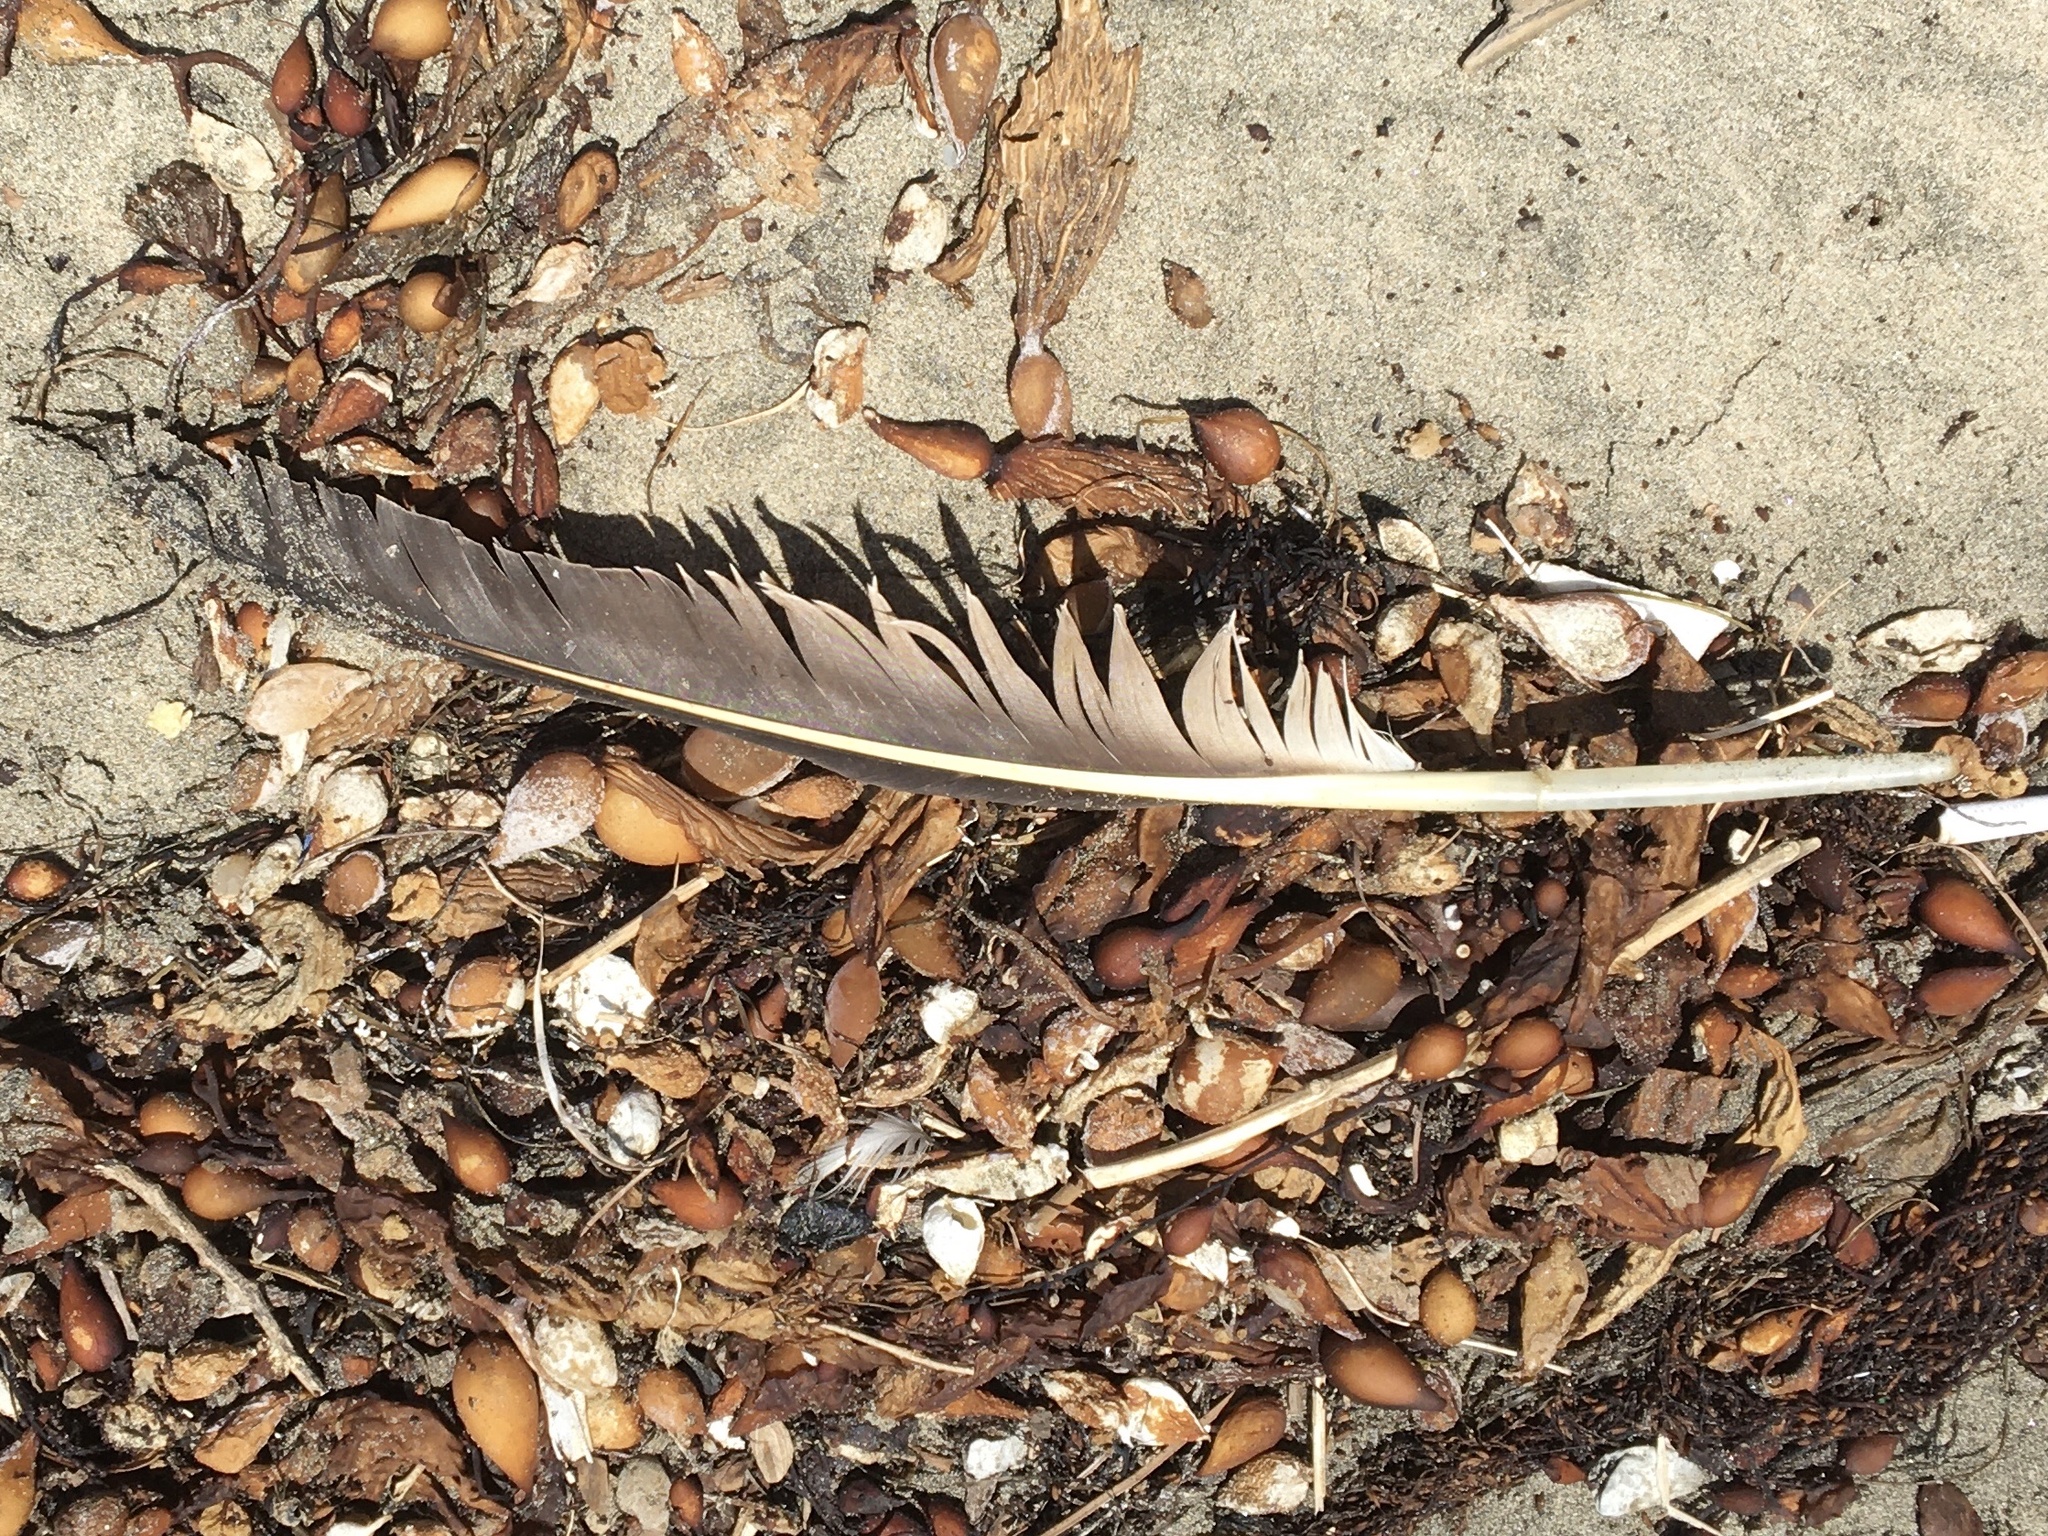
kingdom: Animalia
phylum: Chordata
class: Aves
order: Pelecaniformes
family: Pelecanidae
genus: Pelecanus
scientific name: Pelecanus occidentalis
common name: Brown pelican
